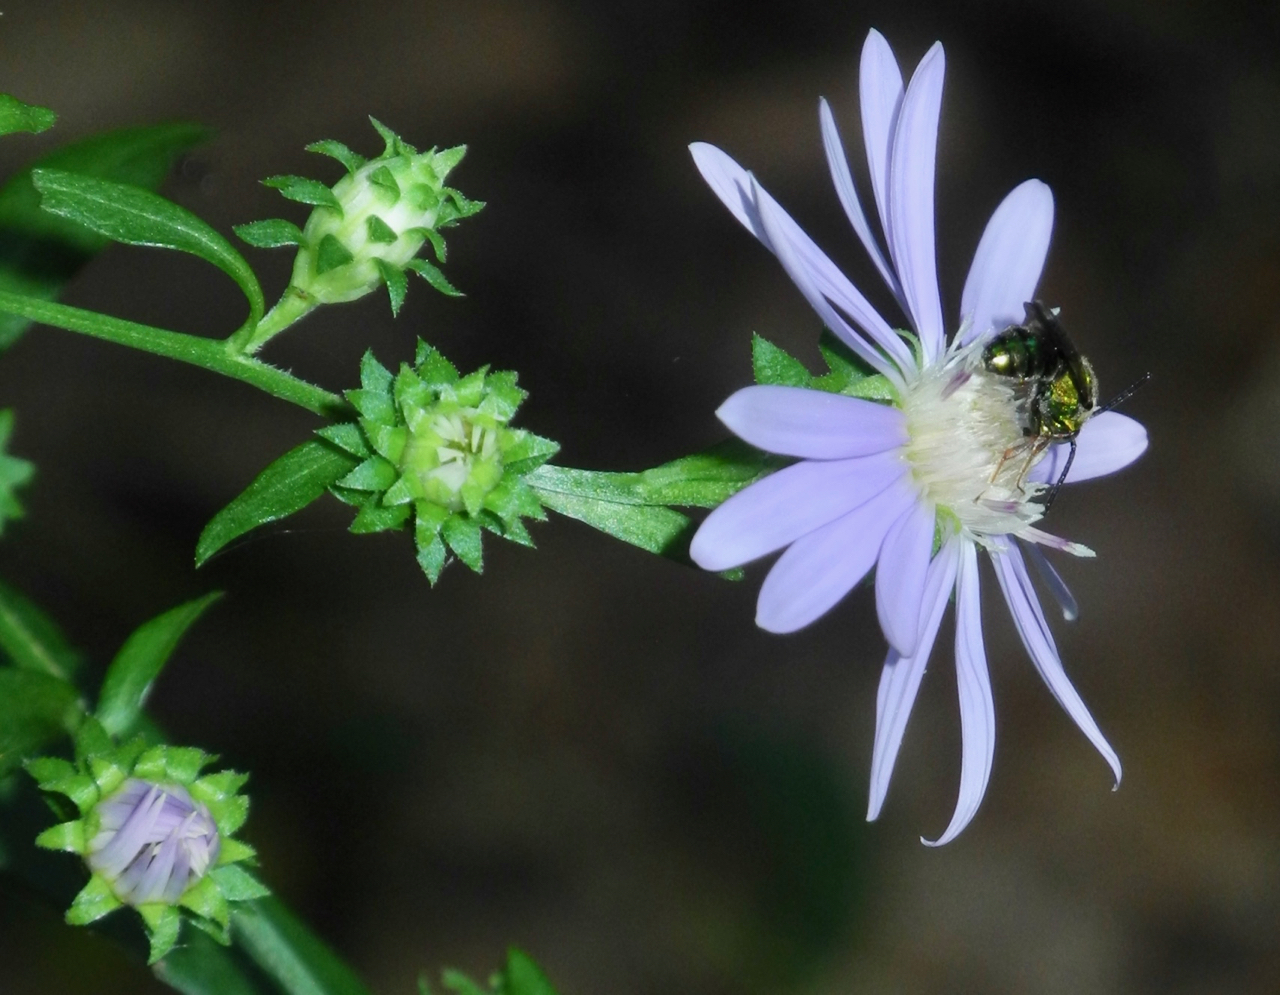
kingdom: Animalia
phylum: Arthropoda
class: Insecta
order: Hymenoptera
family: Halictidae
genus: Augochlora
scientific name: Augochlora pura
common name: Pure green sweat bee
